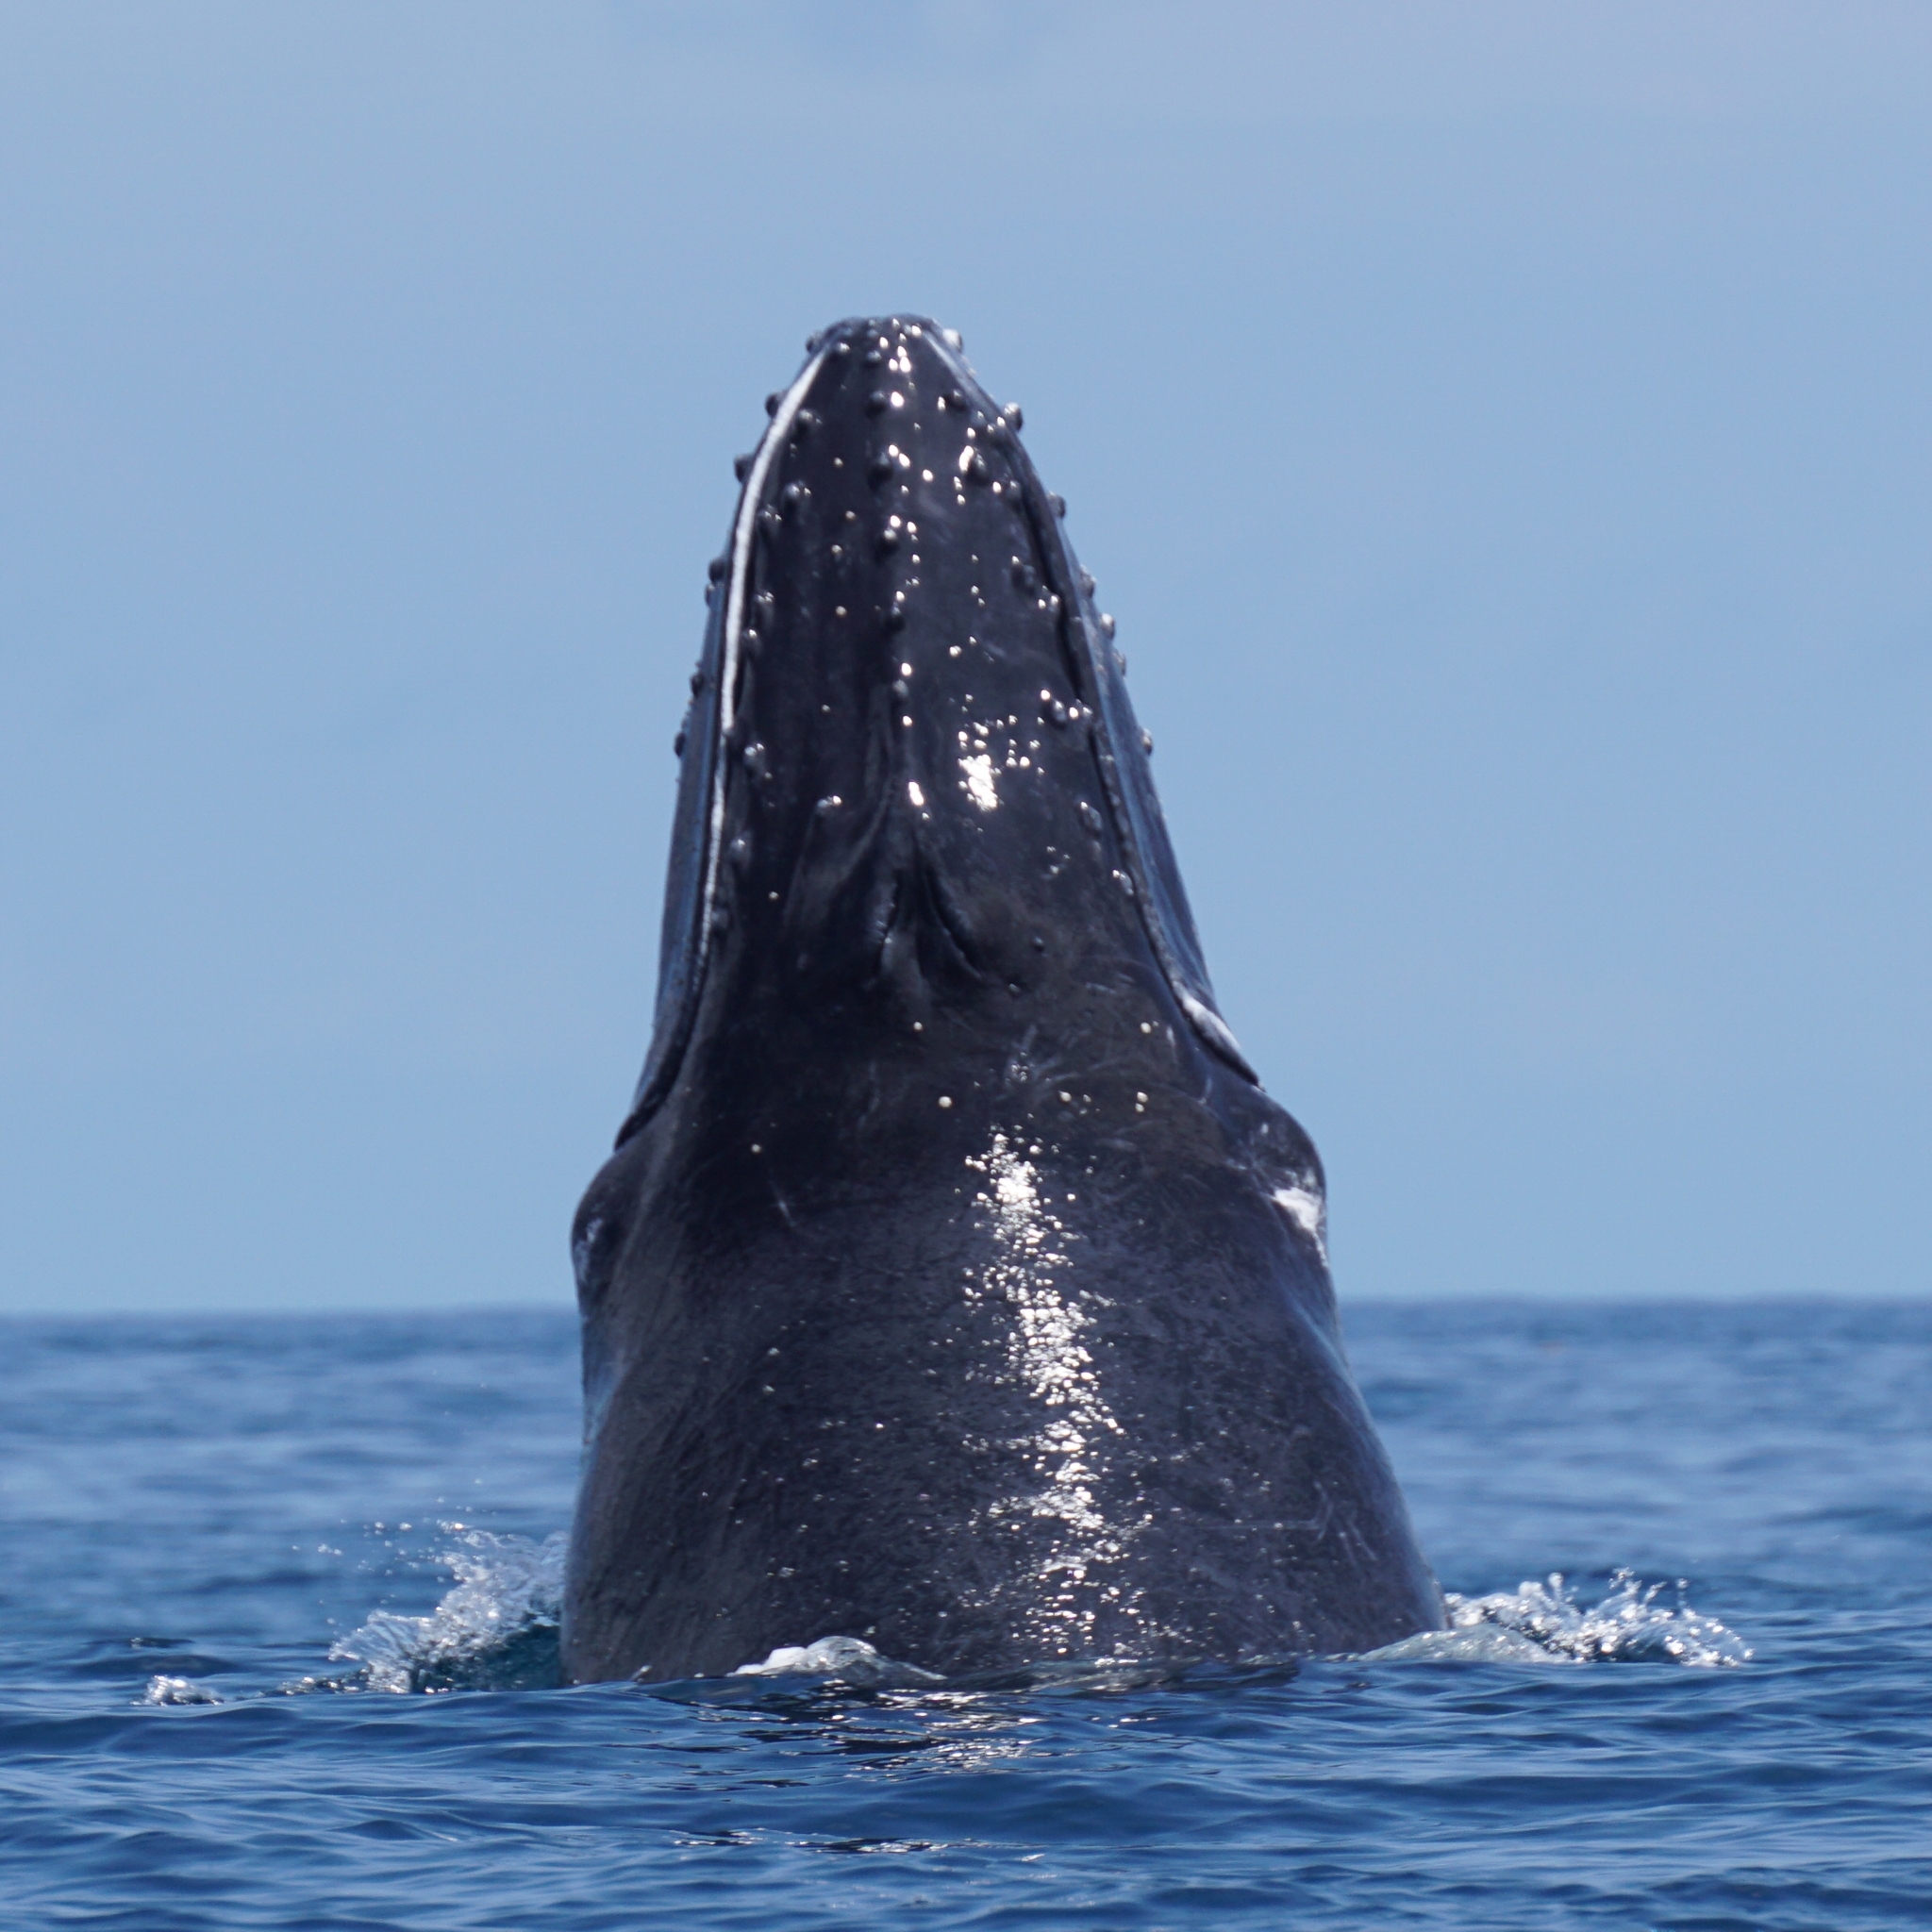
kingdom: Animalia
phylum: Chordata
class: Mammalia
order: Cetacea
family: Balaenopteridae
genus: Megaptera
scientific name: Megaptera novaeangliae
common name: Humpback whale
